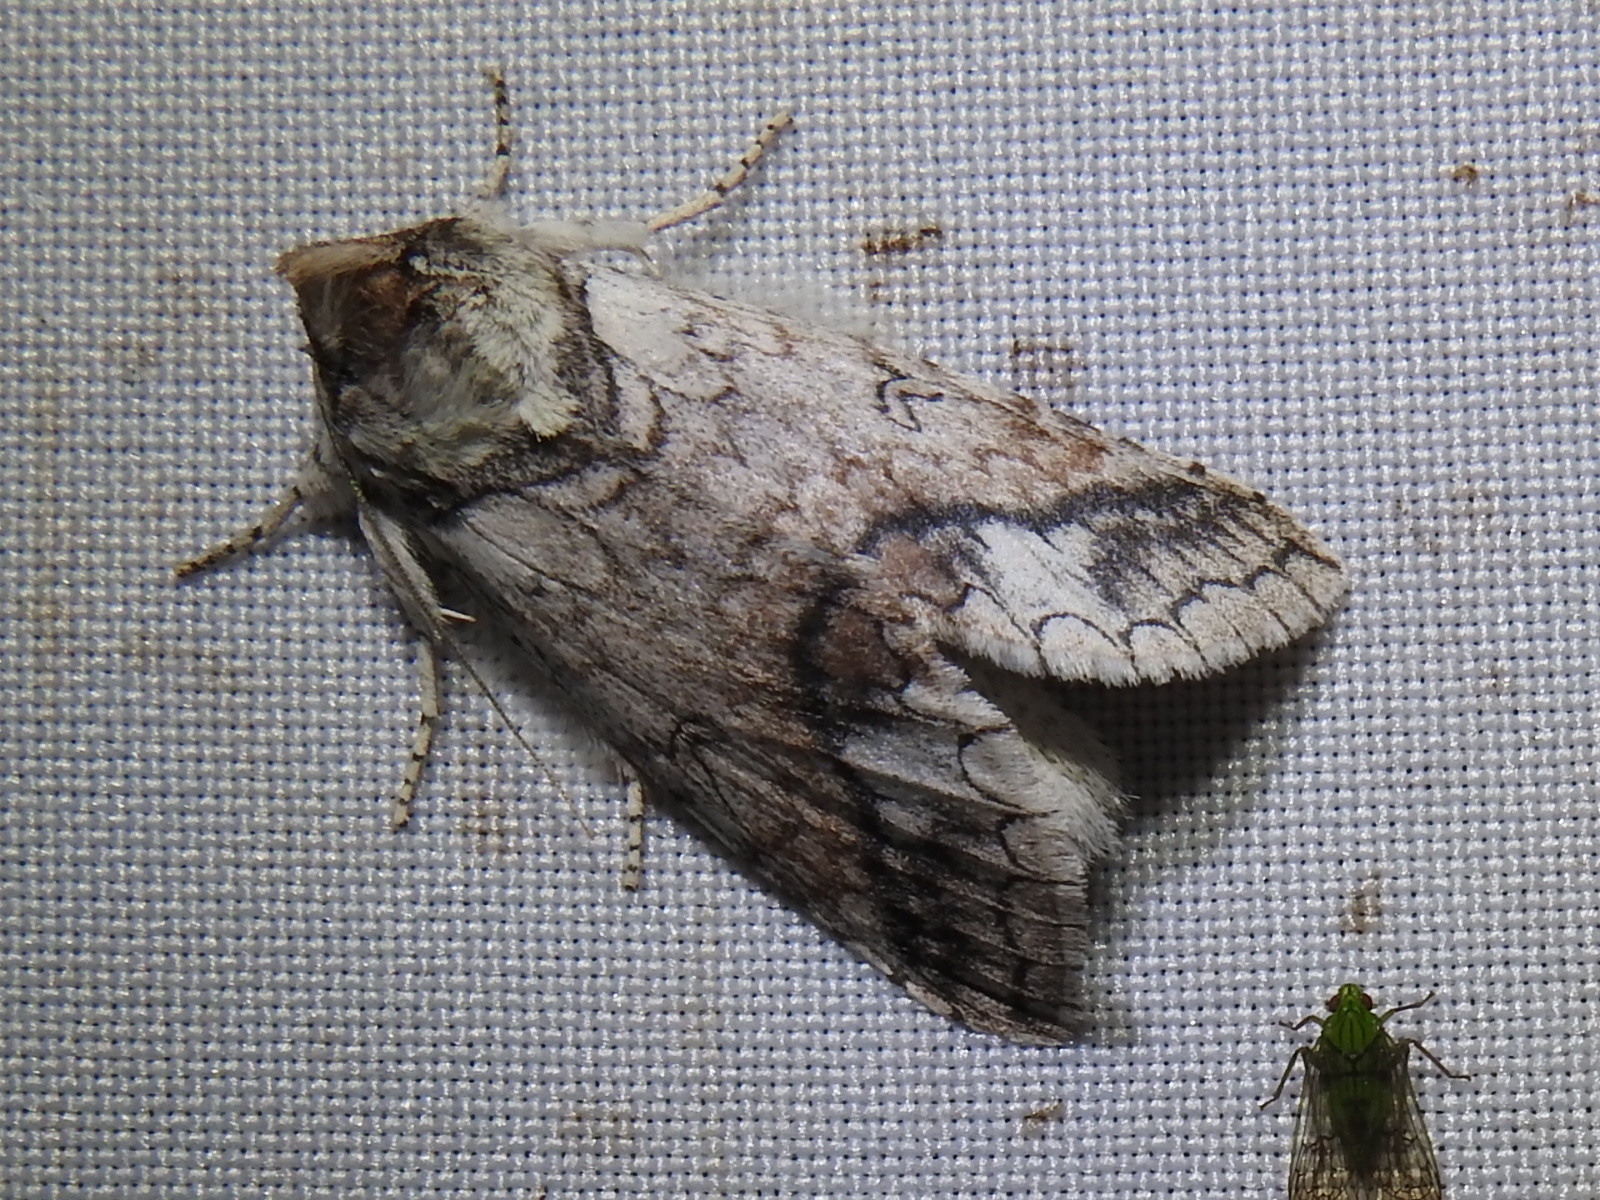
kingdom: Animalia
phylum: Arthropoda
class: Insecta
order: Lepidoptera
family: Notodontidae
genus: Rifargia
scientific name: Rifargia lineata
